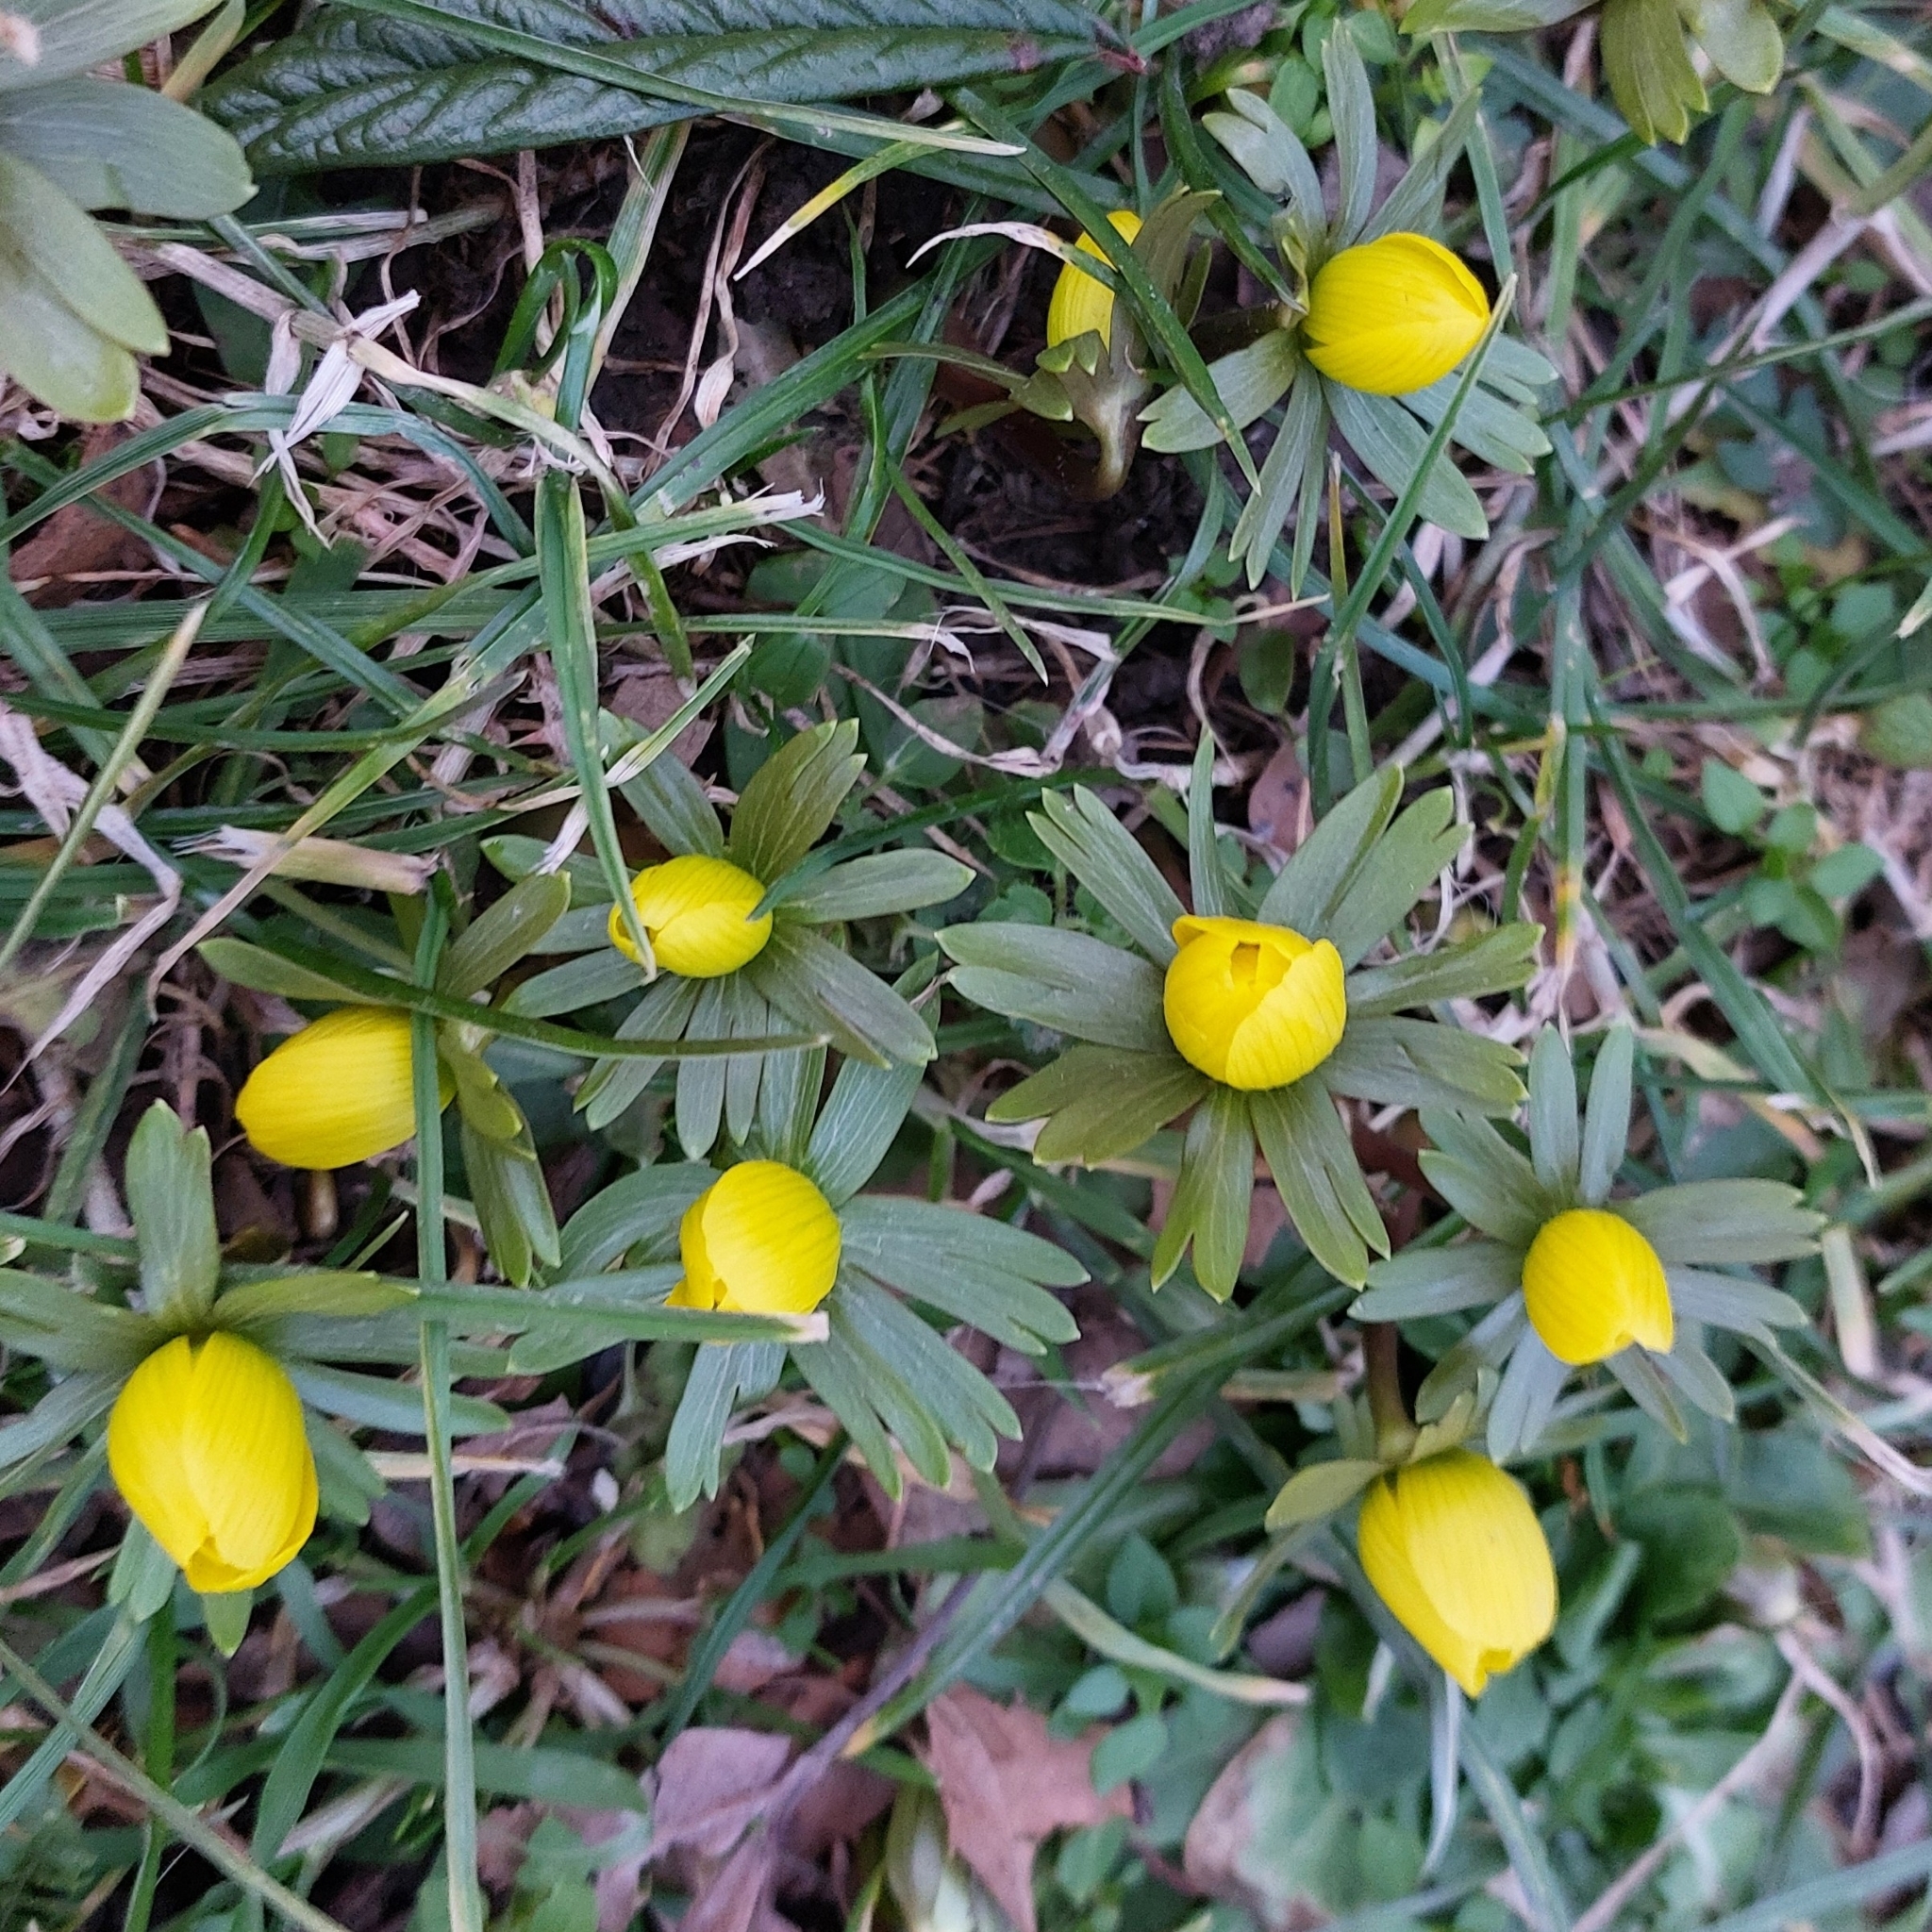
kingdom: Plantae
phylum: Tracheophyta
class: Magnoliopsida
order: Ranunculales
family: Ranunculaceae
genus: Eranthis
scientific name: Eranthis hyemalis
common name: Winter aconite
